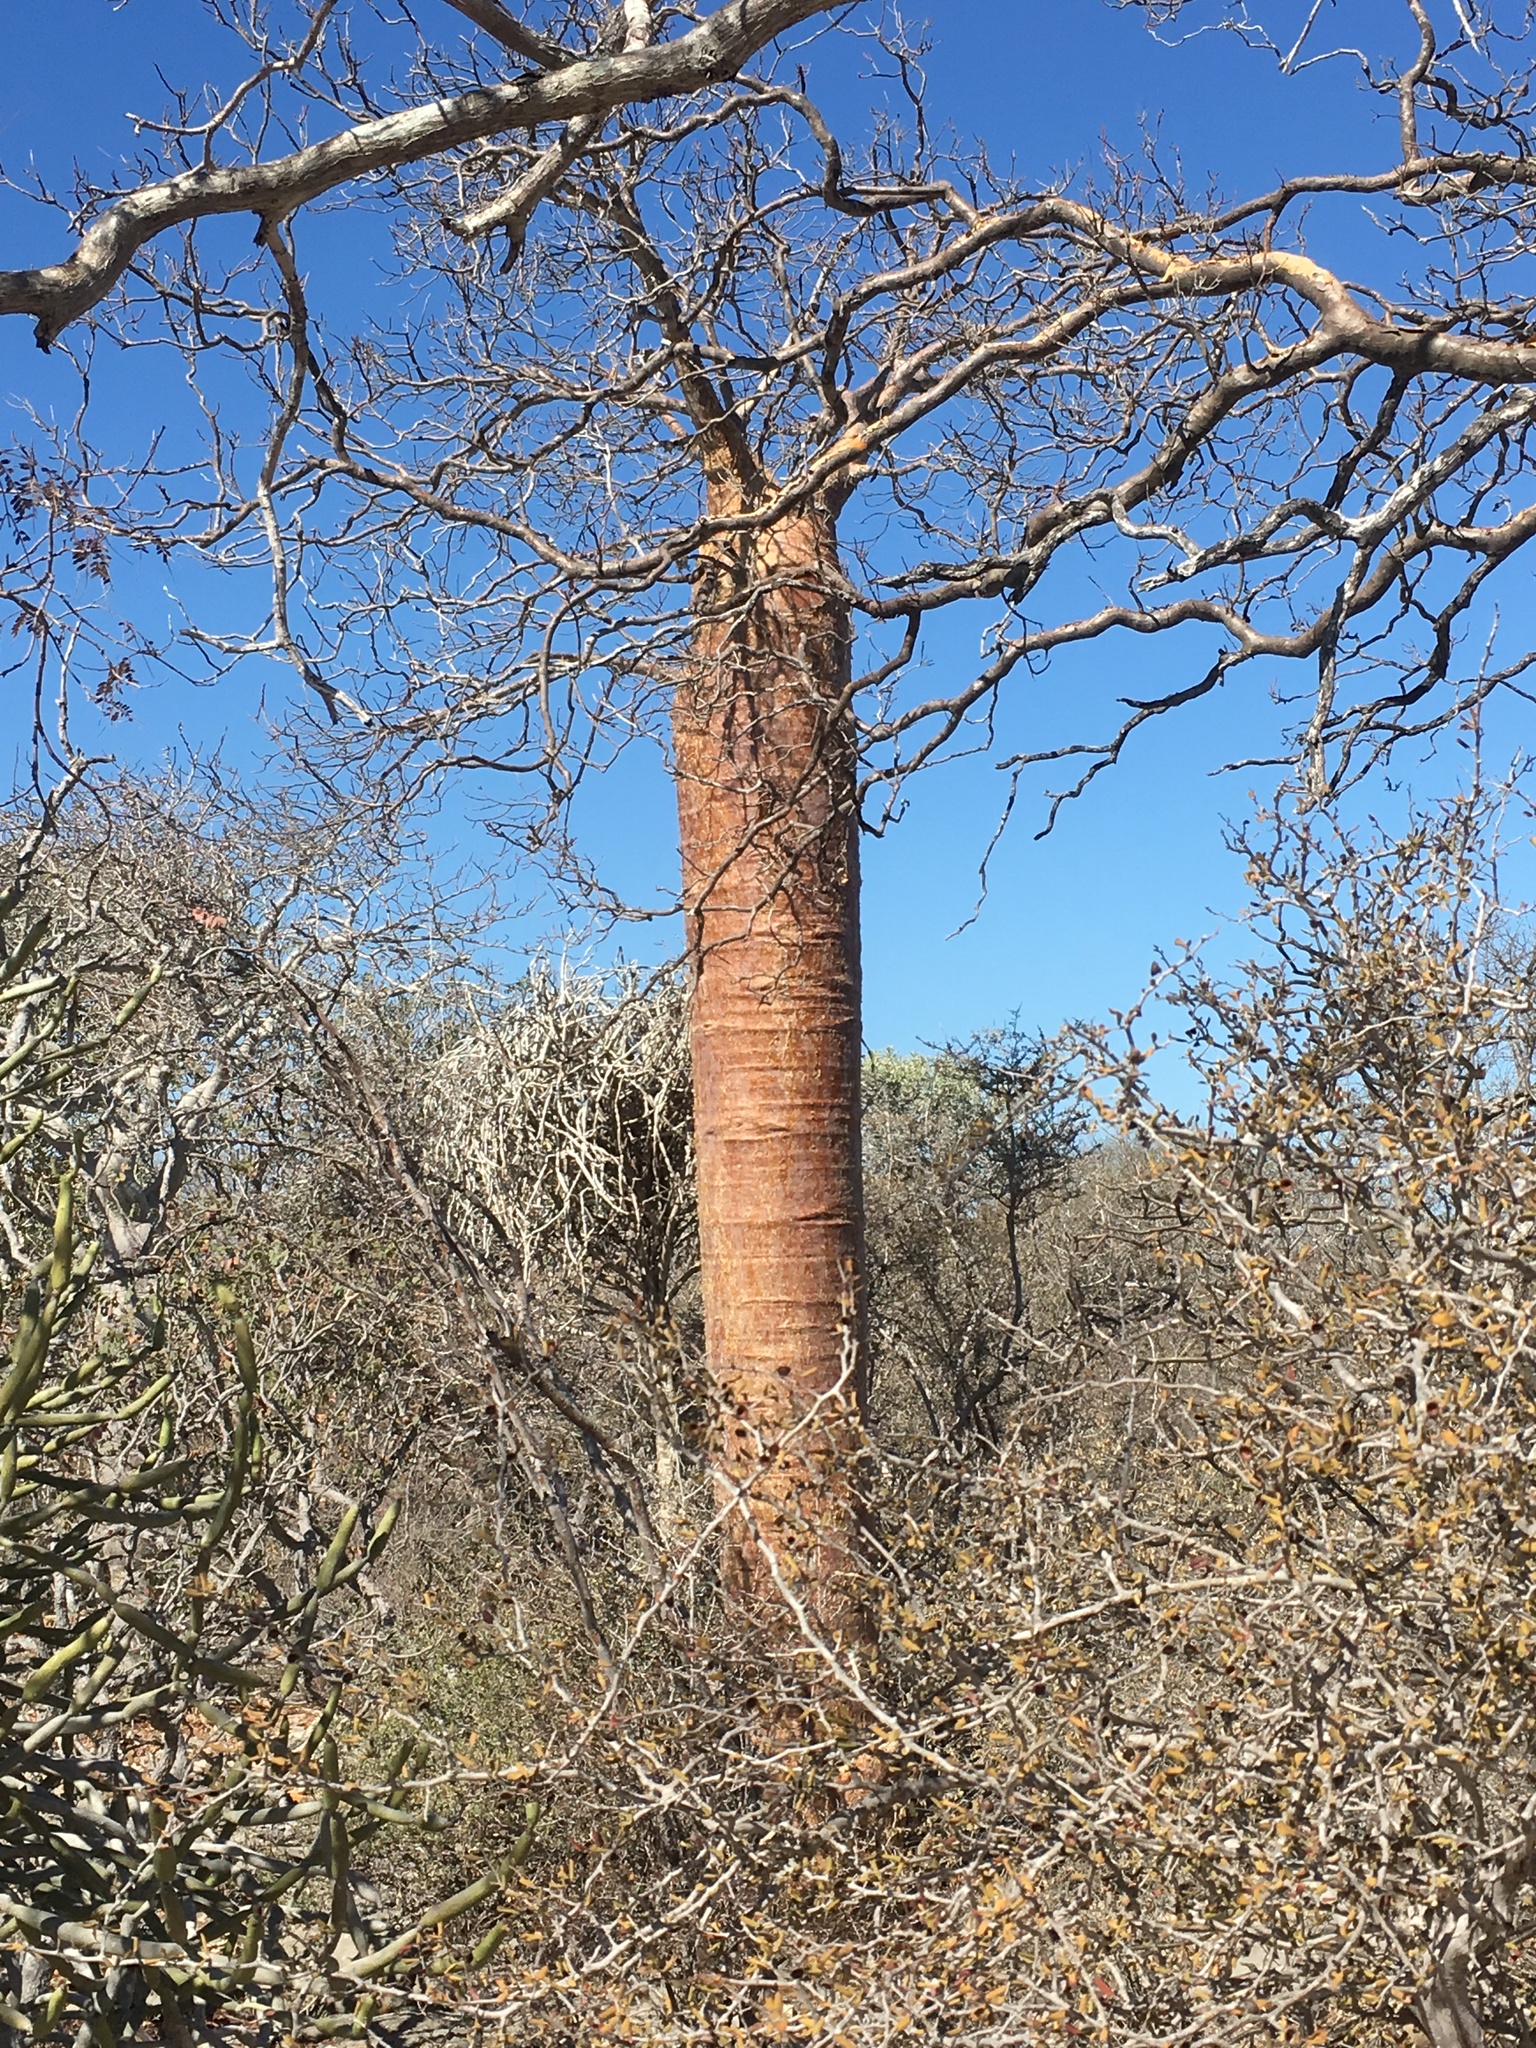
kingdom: Plantae
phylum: Tracheophyta
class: Magnoliopsida
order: Malvales
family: Malvaceae
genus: Adansonia
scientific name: Adansonia rubrostipa
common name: Fony baobab
